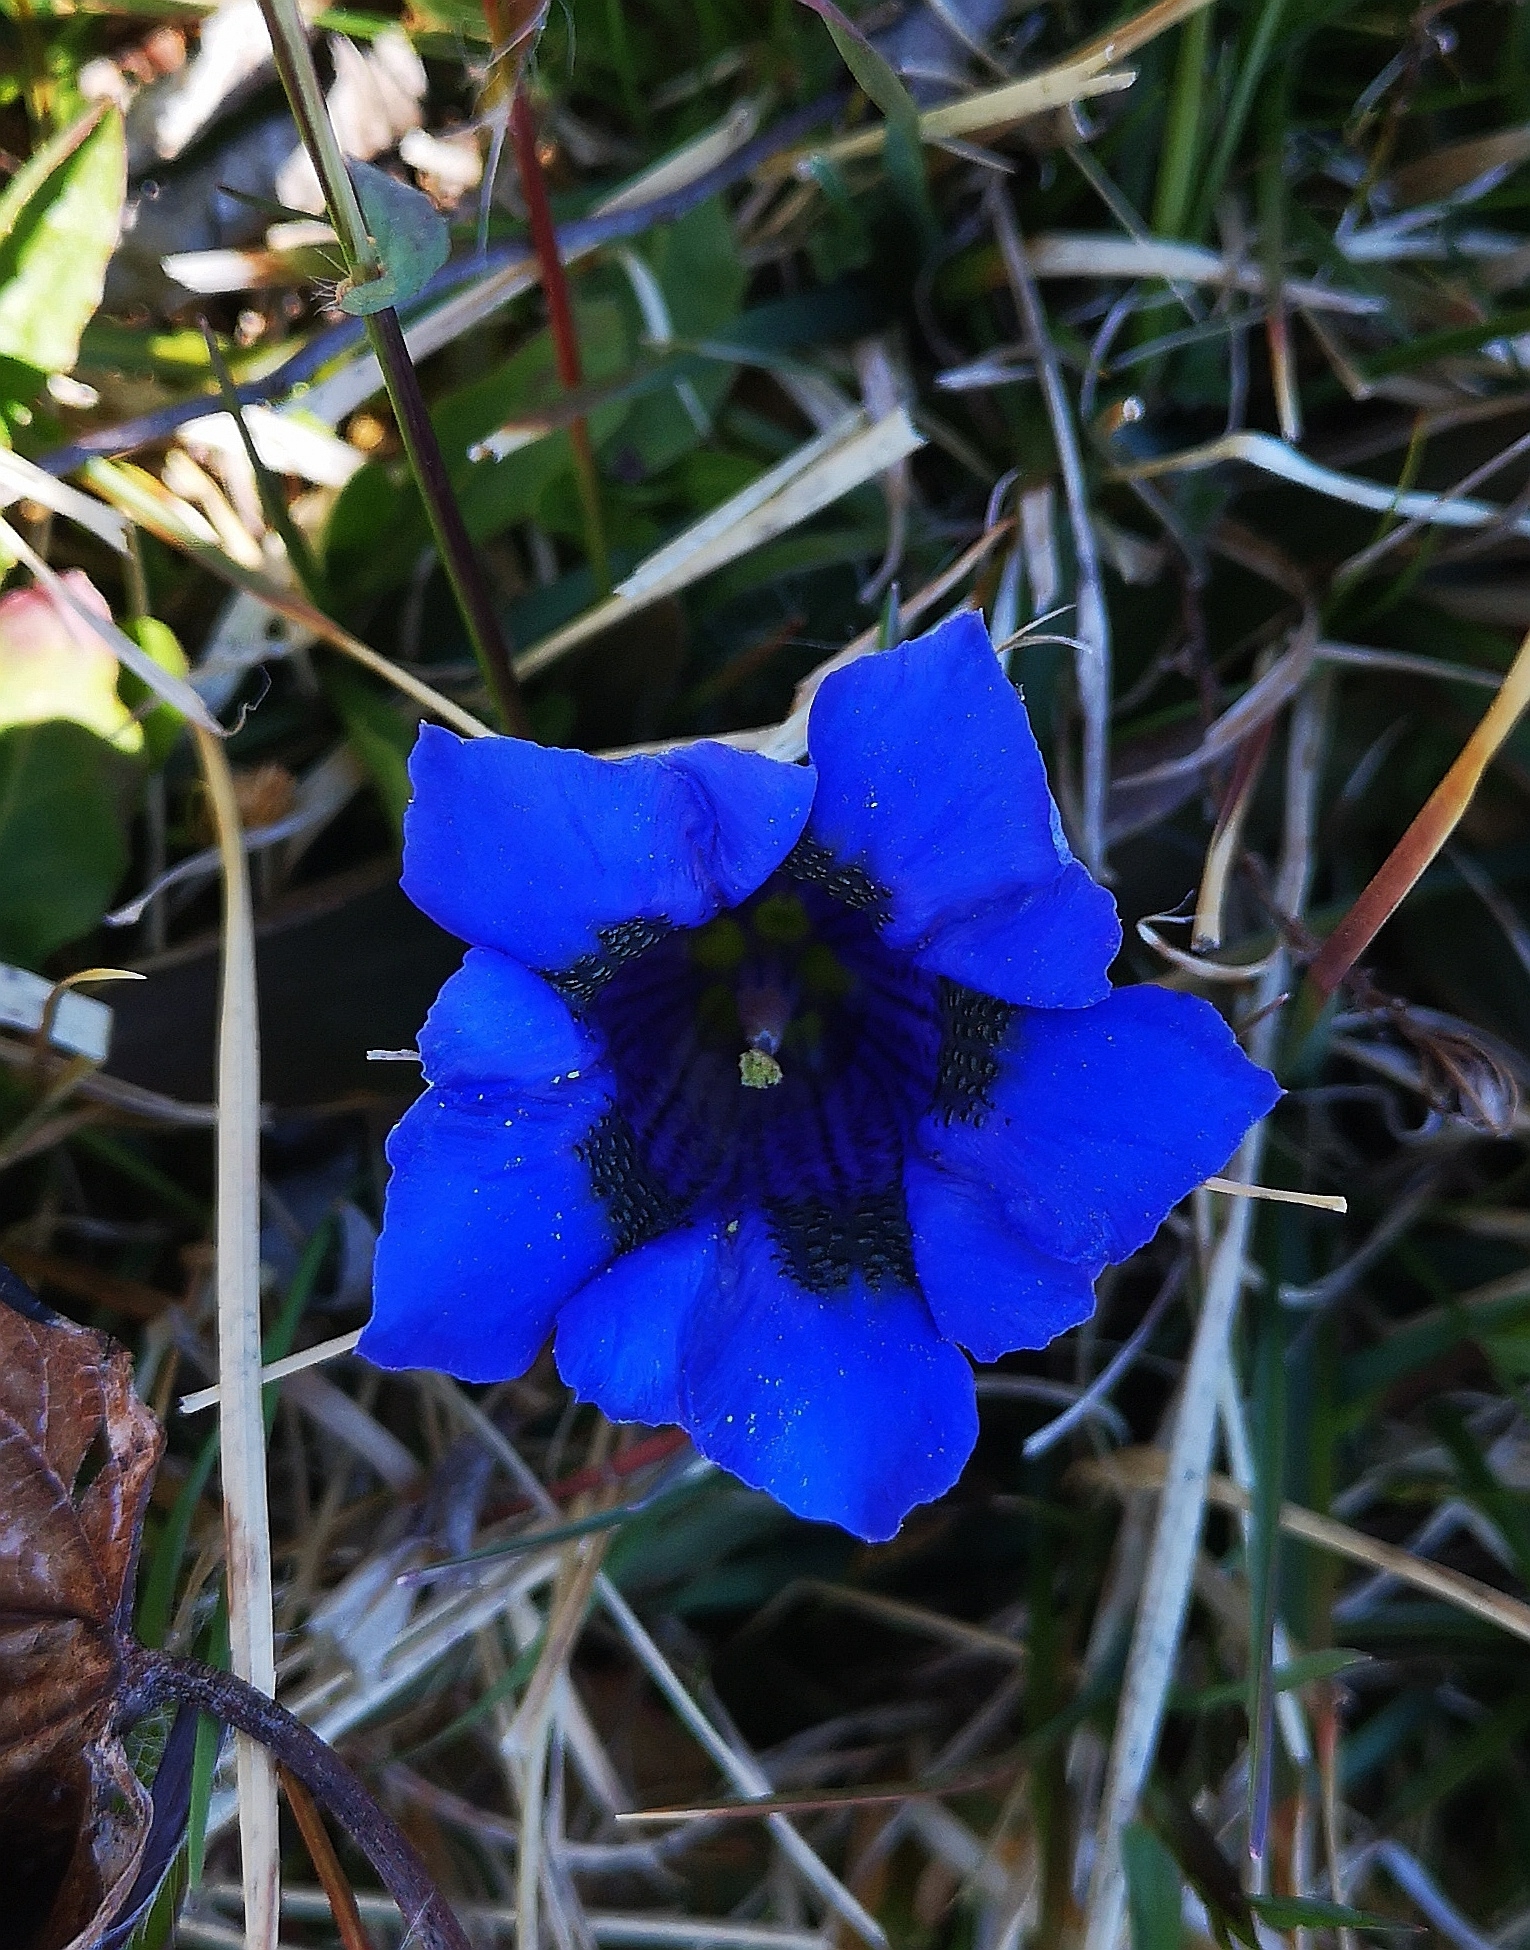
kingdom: Plantae
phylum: Tracheophyta
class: Magnoliopsida
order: Gentianales
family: Gentianaceae
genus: Gentiana
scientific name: Gentiana acaulis
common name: Trumpet gentian
